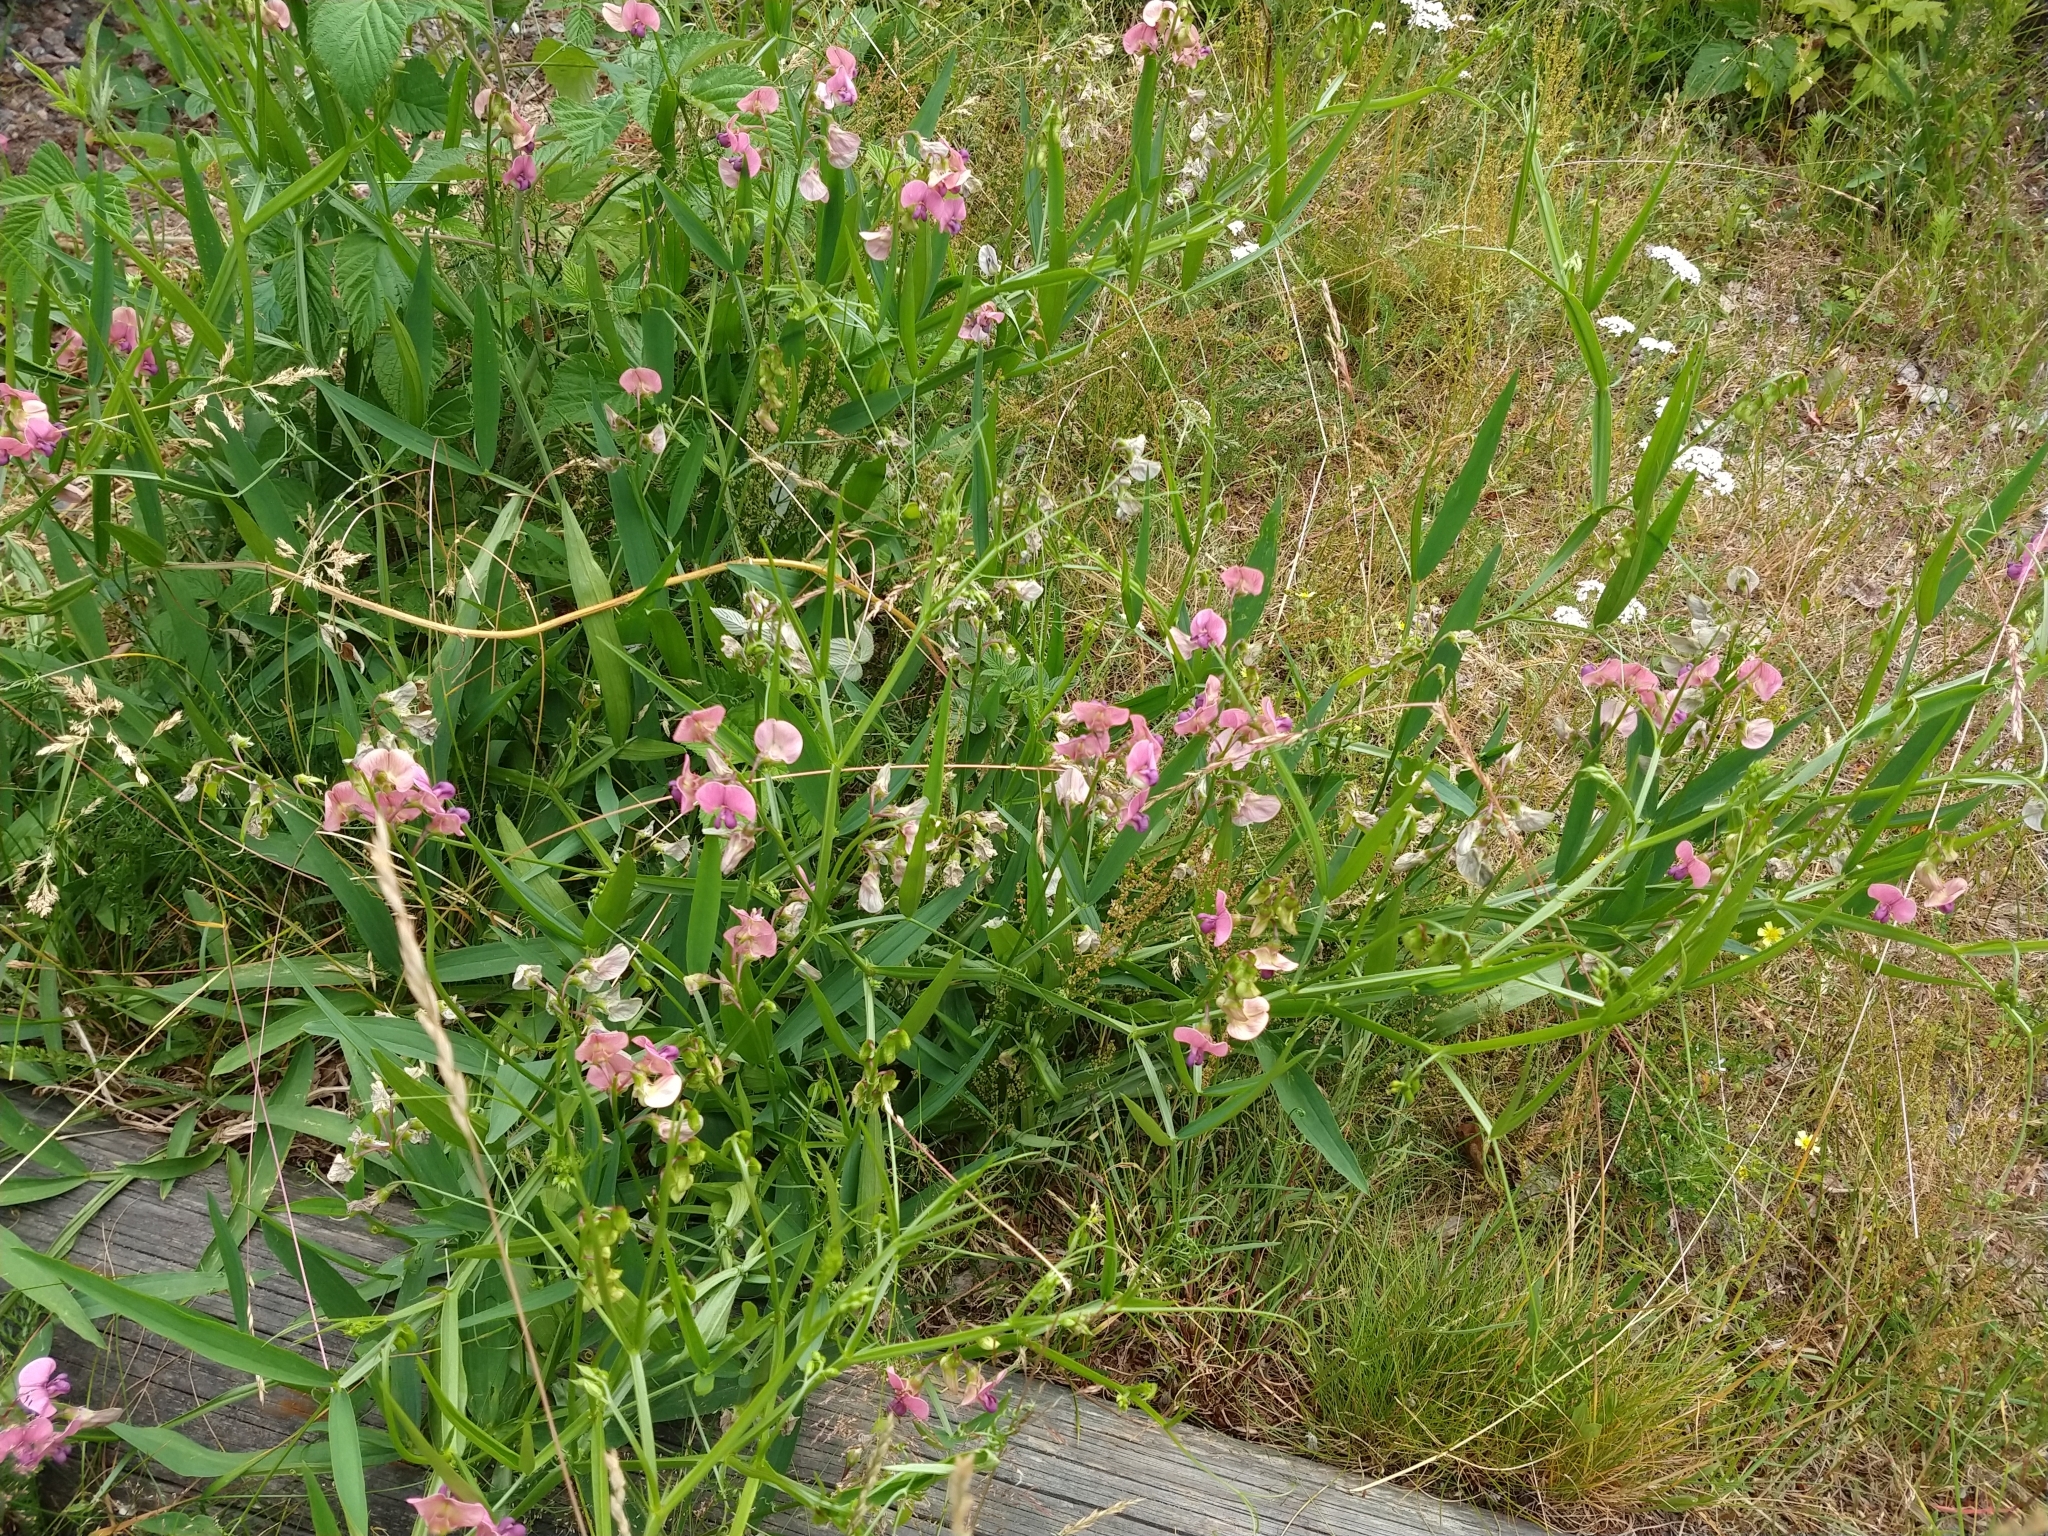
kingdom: Plantae
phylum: Tracheophyta
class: Magnoliopsida
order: Fabales
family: Fabaceae
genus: Lathyrus
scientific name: Lathyrus sylvestris
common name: Flat pea
